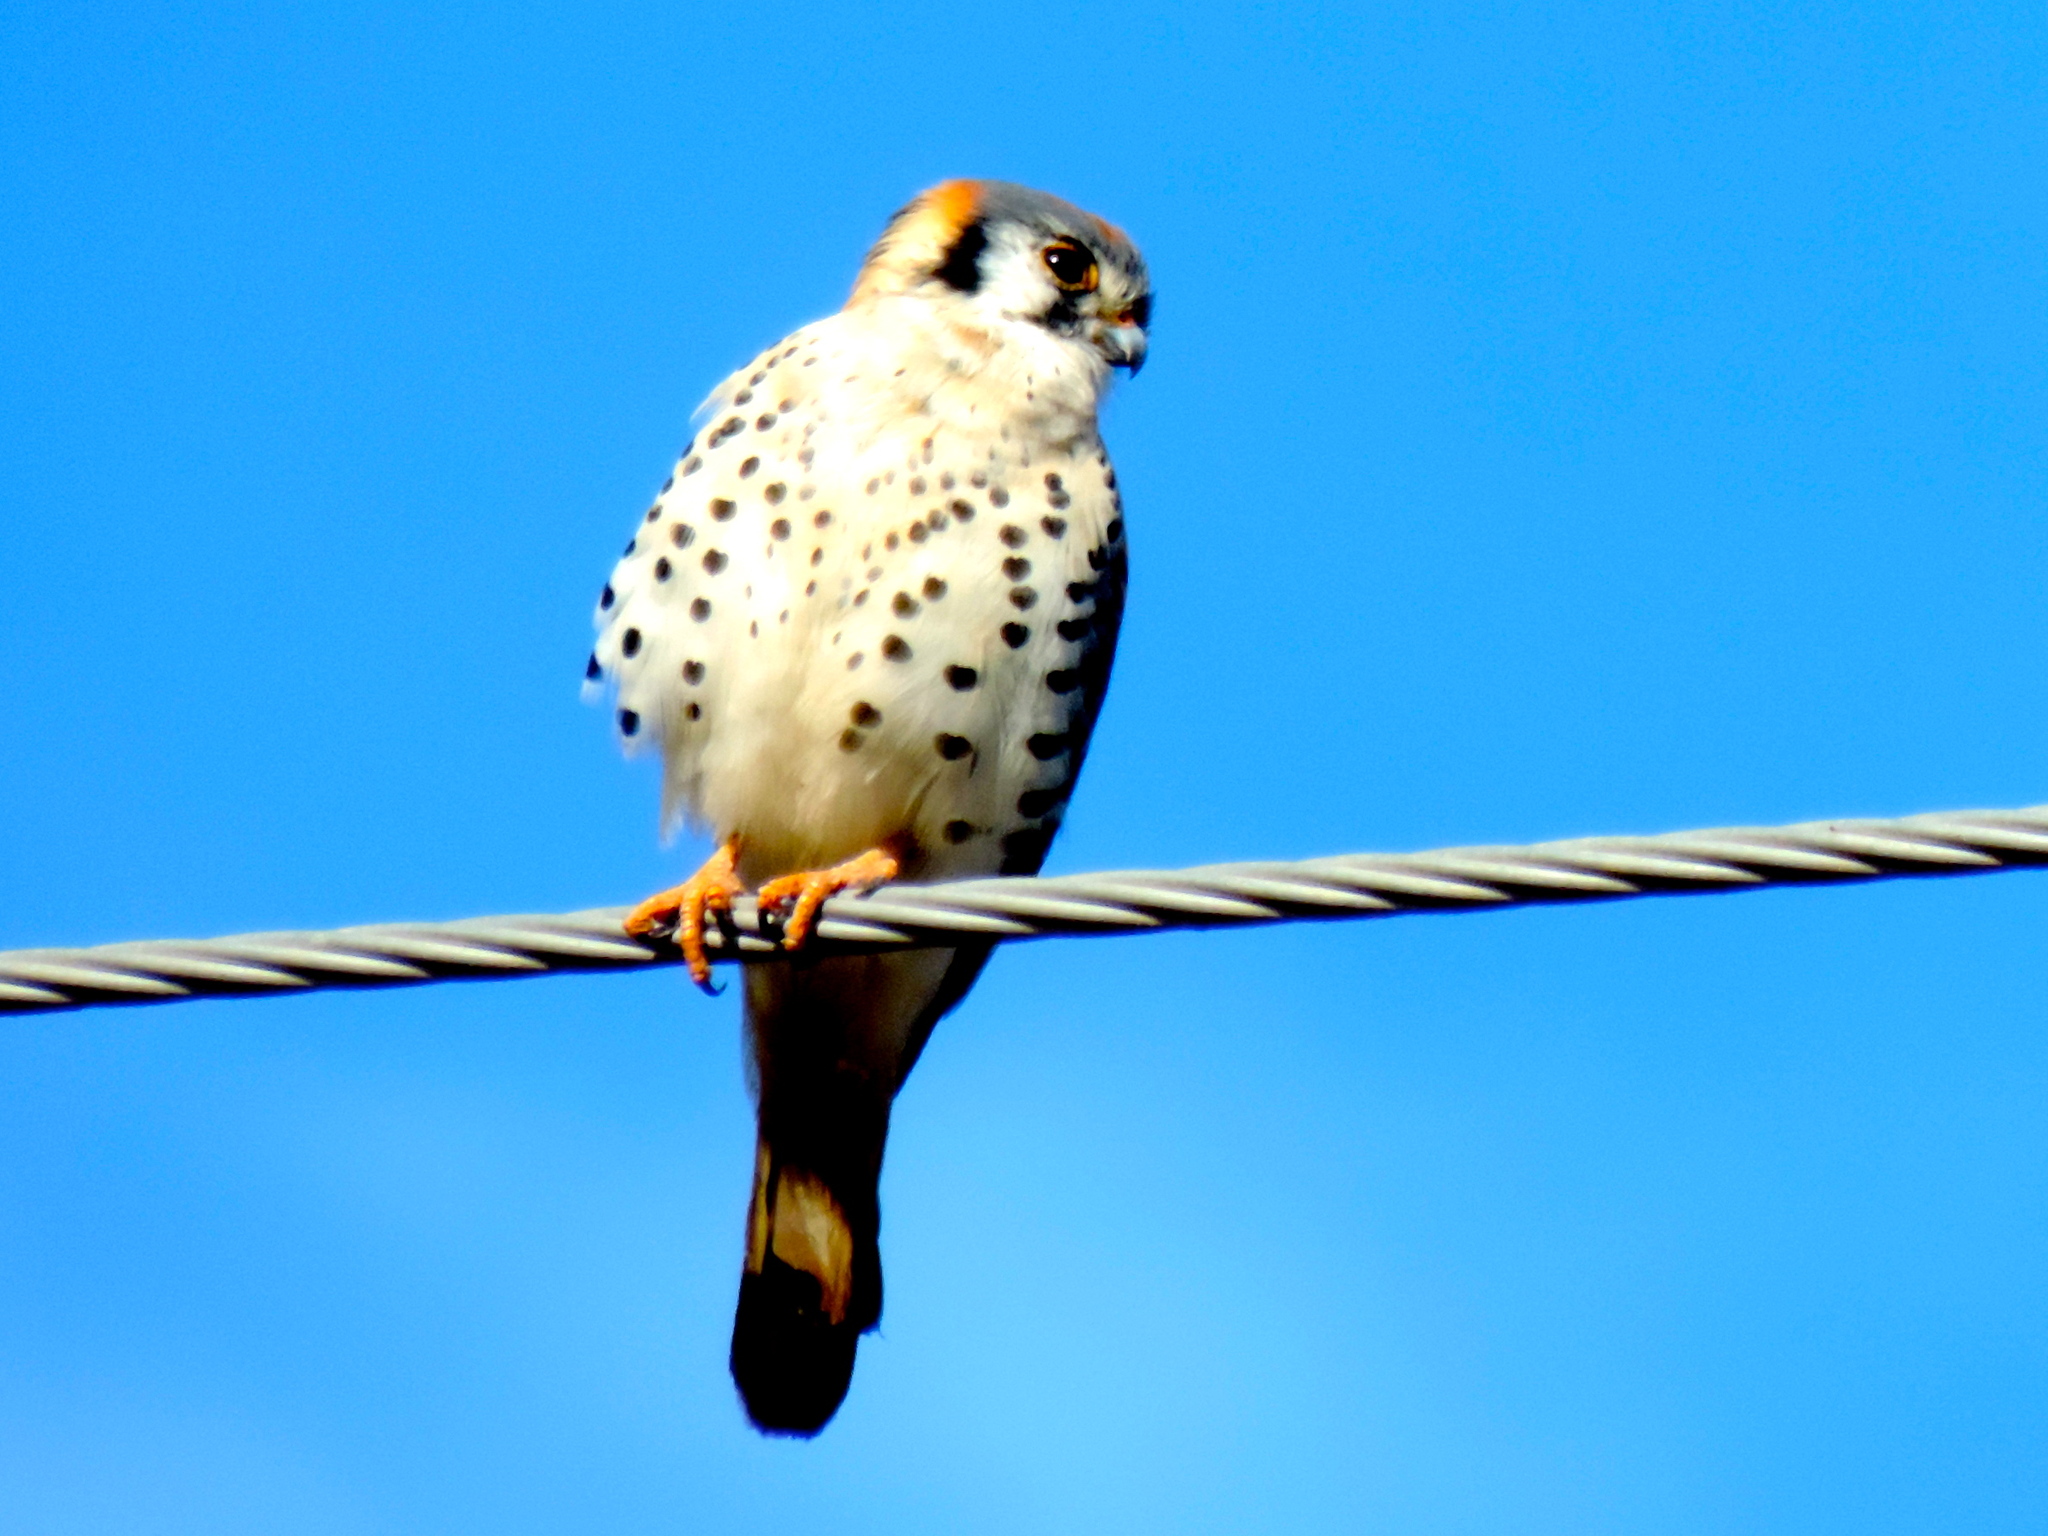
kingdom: Animalia
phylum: Chordata
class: Aves
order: Falconiformes
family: Falconidae
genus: Falco
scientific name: Falco sparverius
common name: American kestrel
